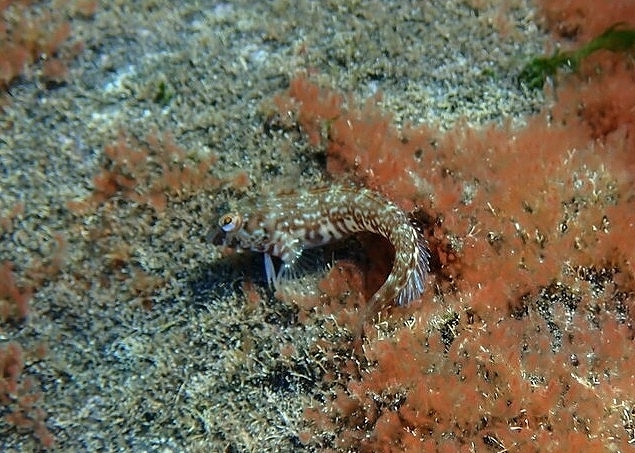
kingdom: Animalia
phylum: Chordata
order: Perciformes
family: Blenniidae
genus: Parablennius
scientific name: Parablennius goreensis
